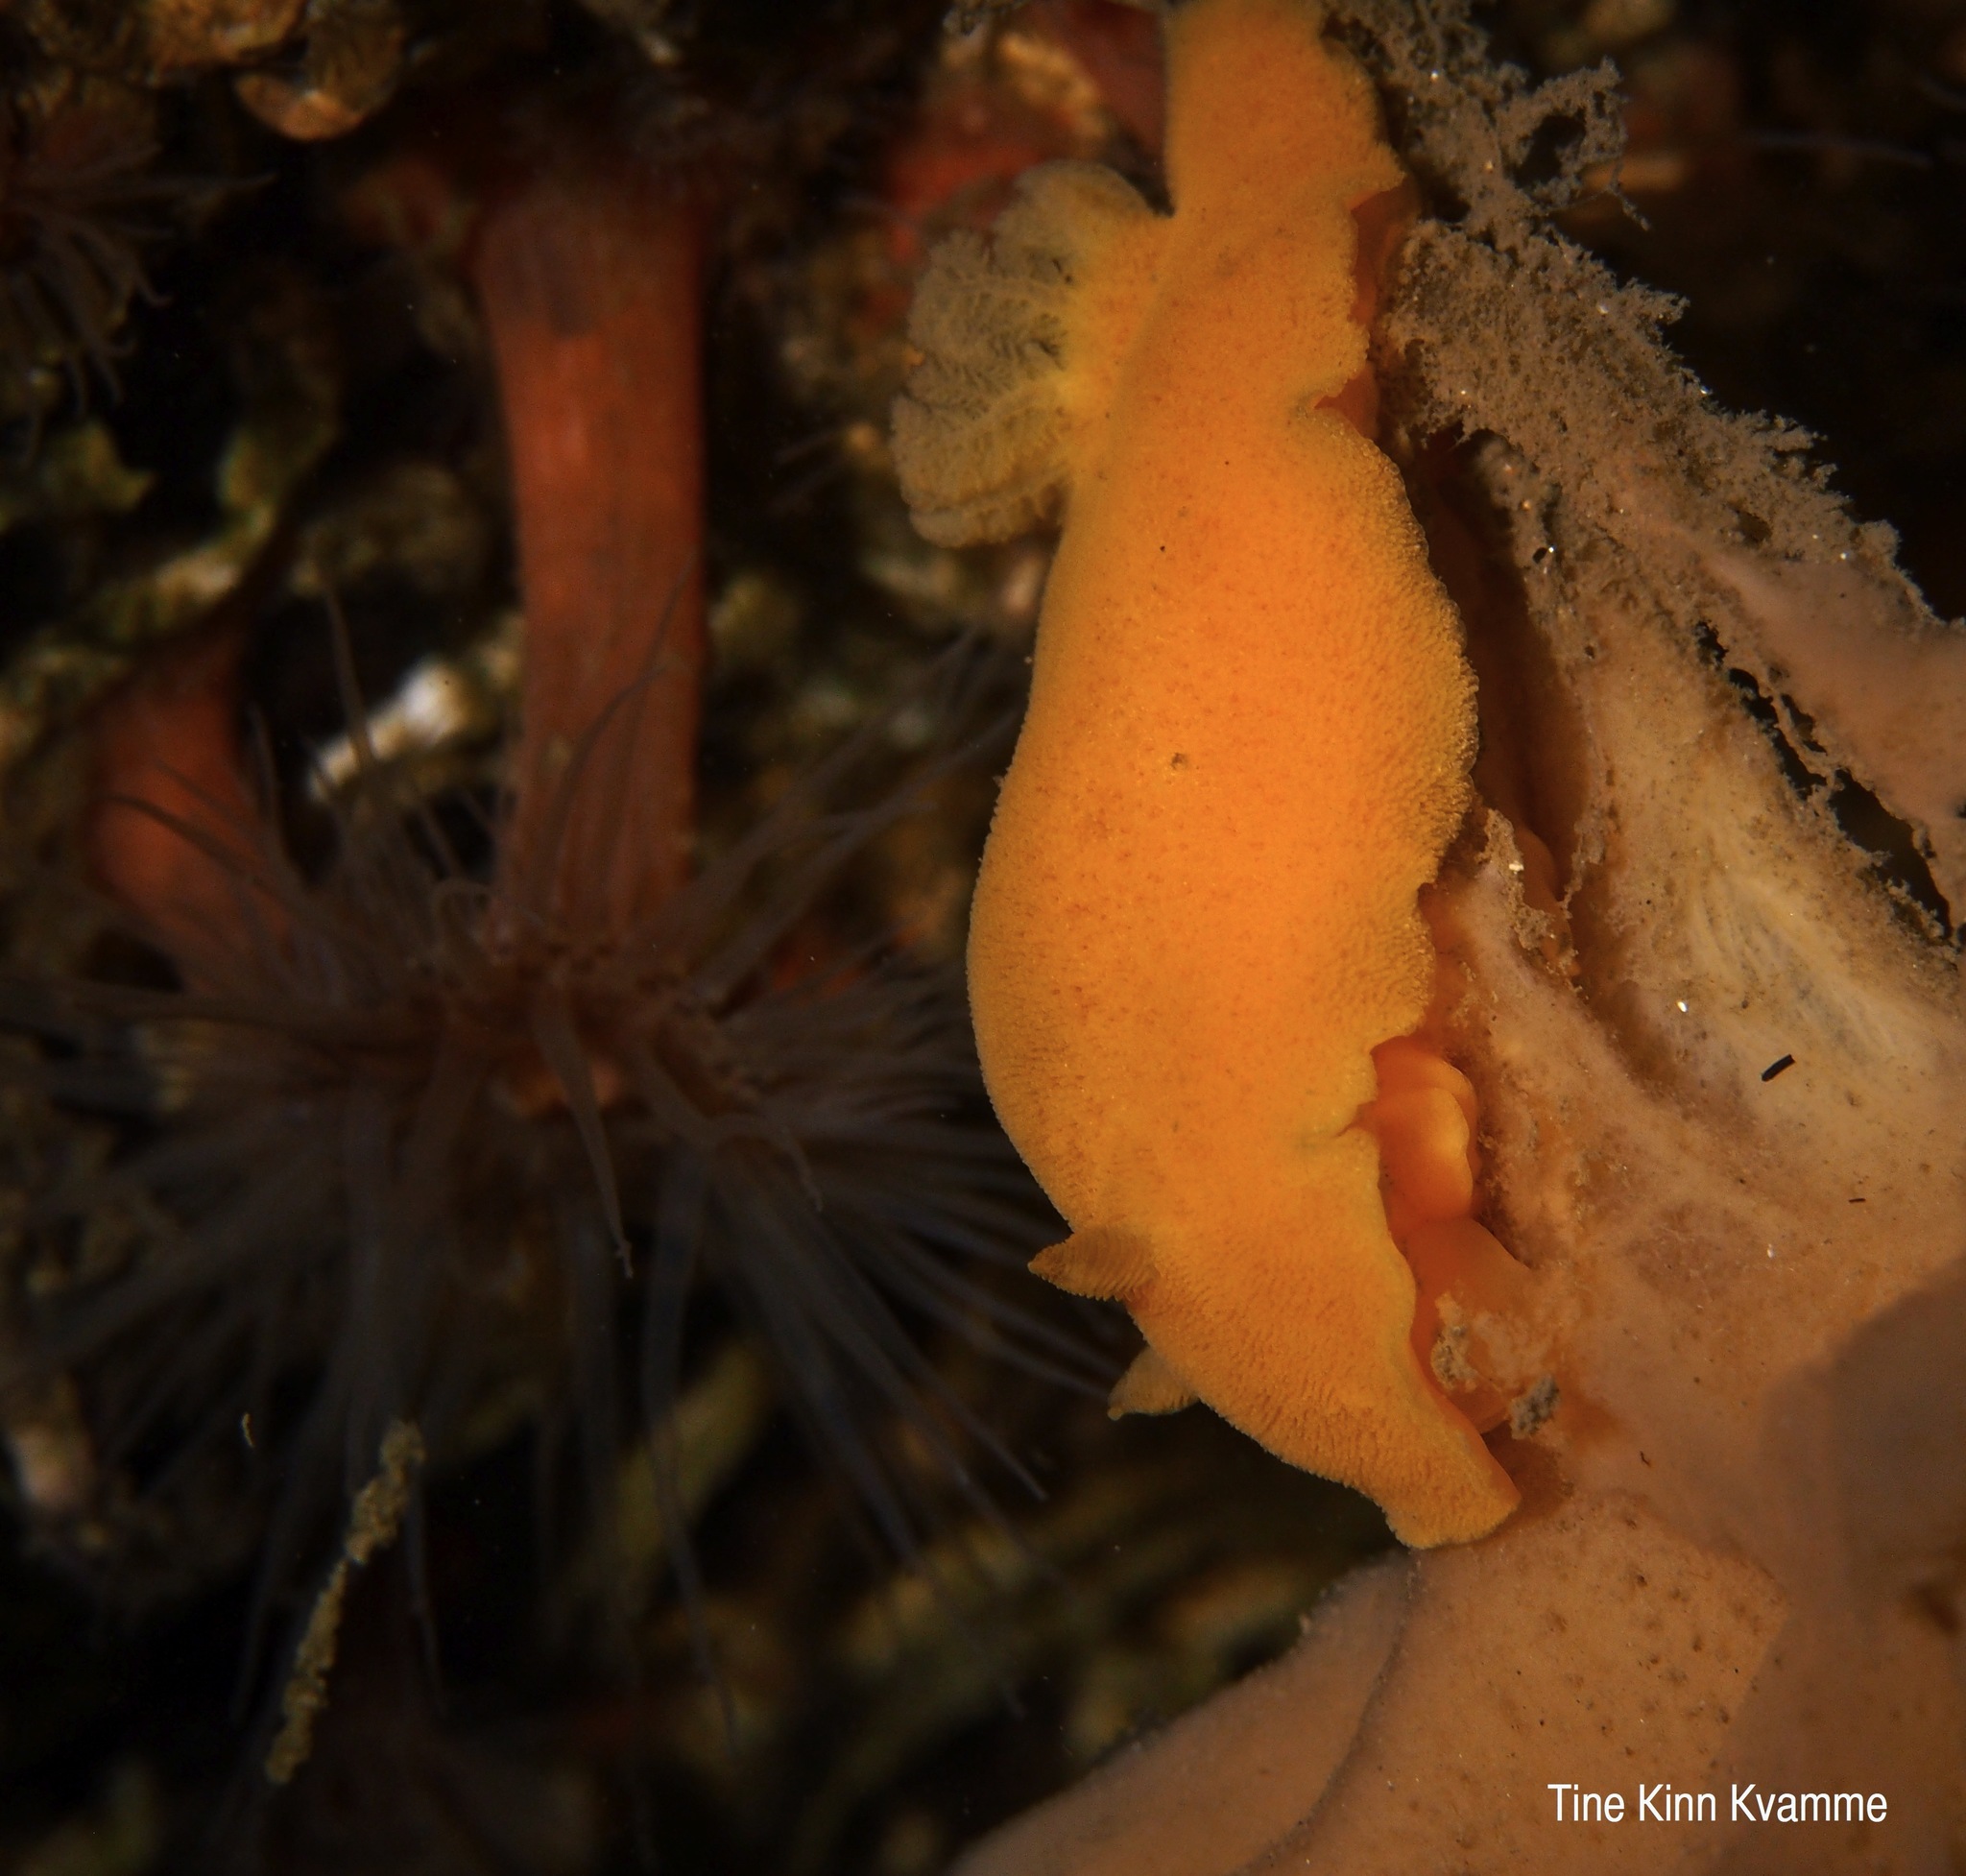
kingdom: Animalia
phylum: Mollusca
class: Gastropoda
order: Nudibranchia
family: Discodorididae
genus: Jorunna
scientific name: Jorunna tomentosa
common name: Grey sea slug
